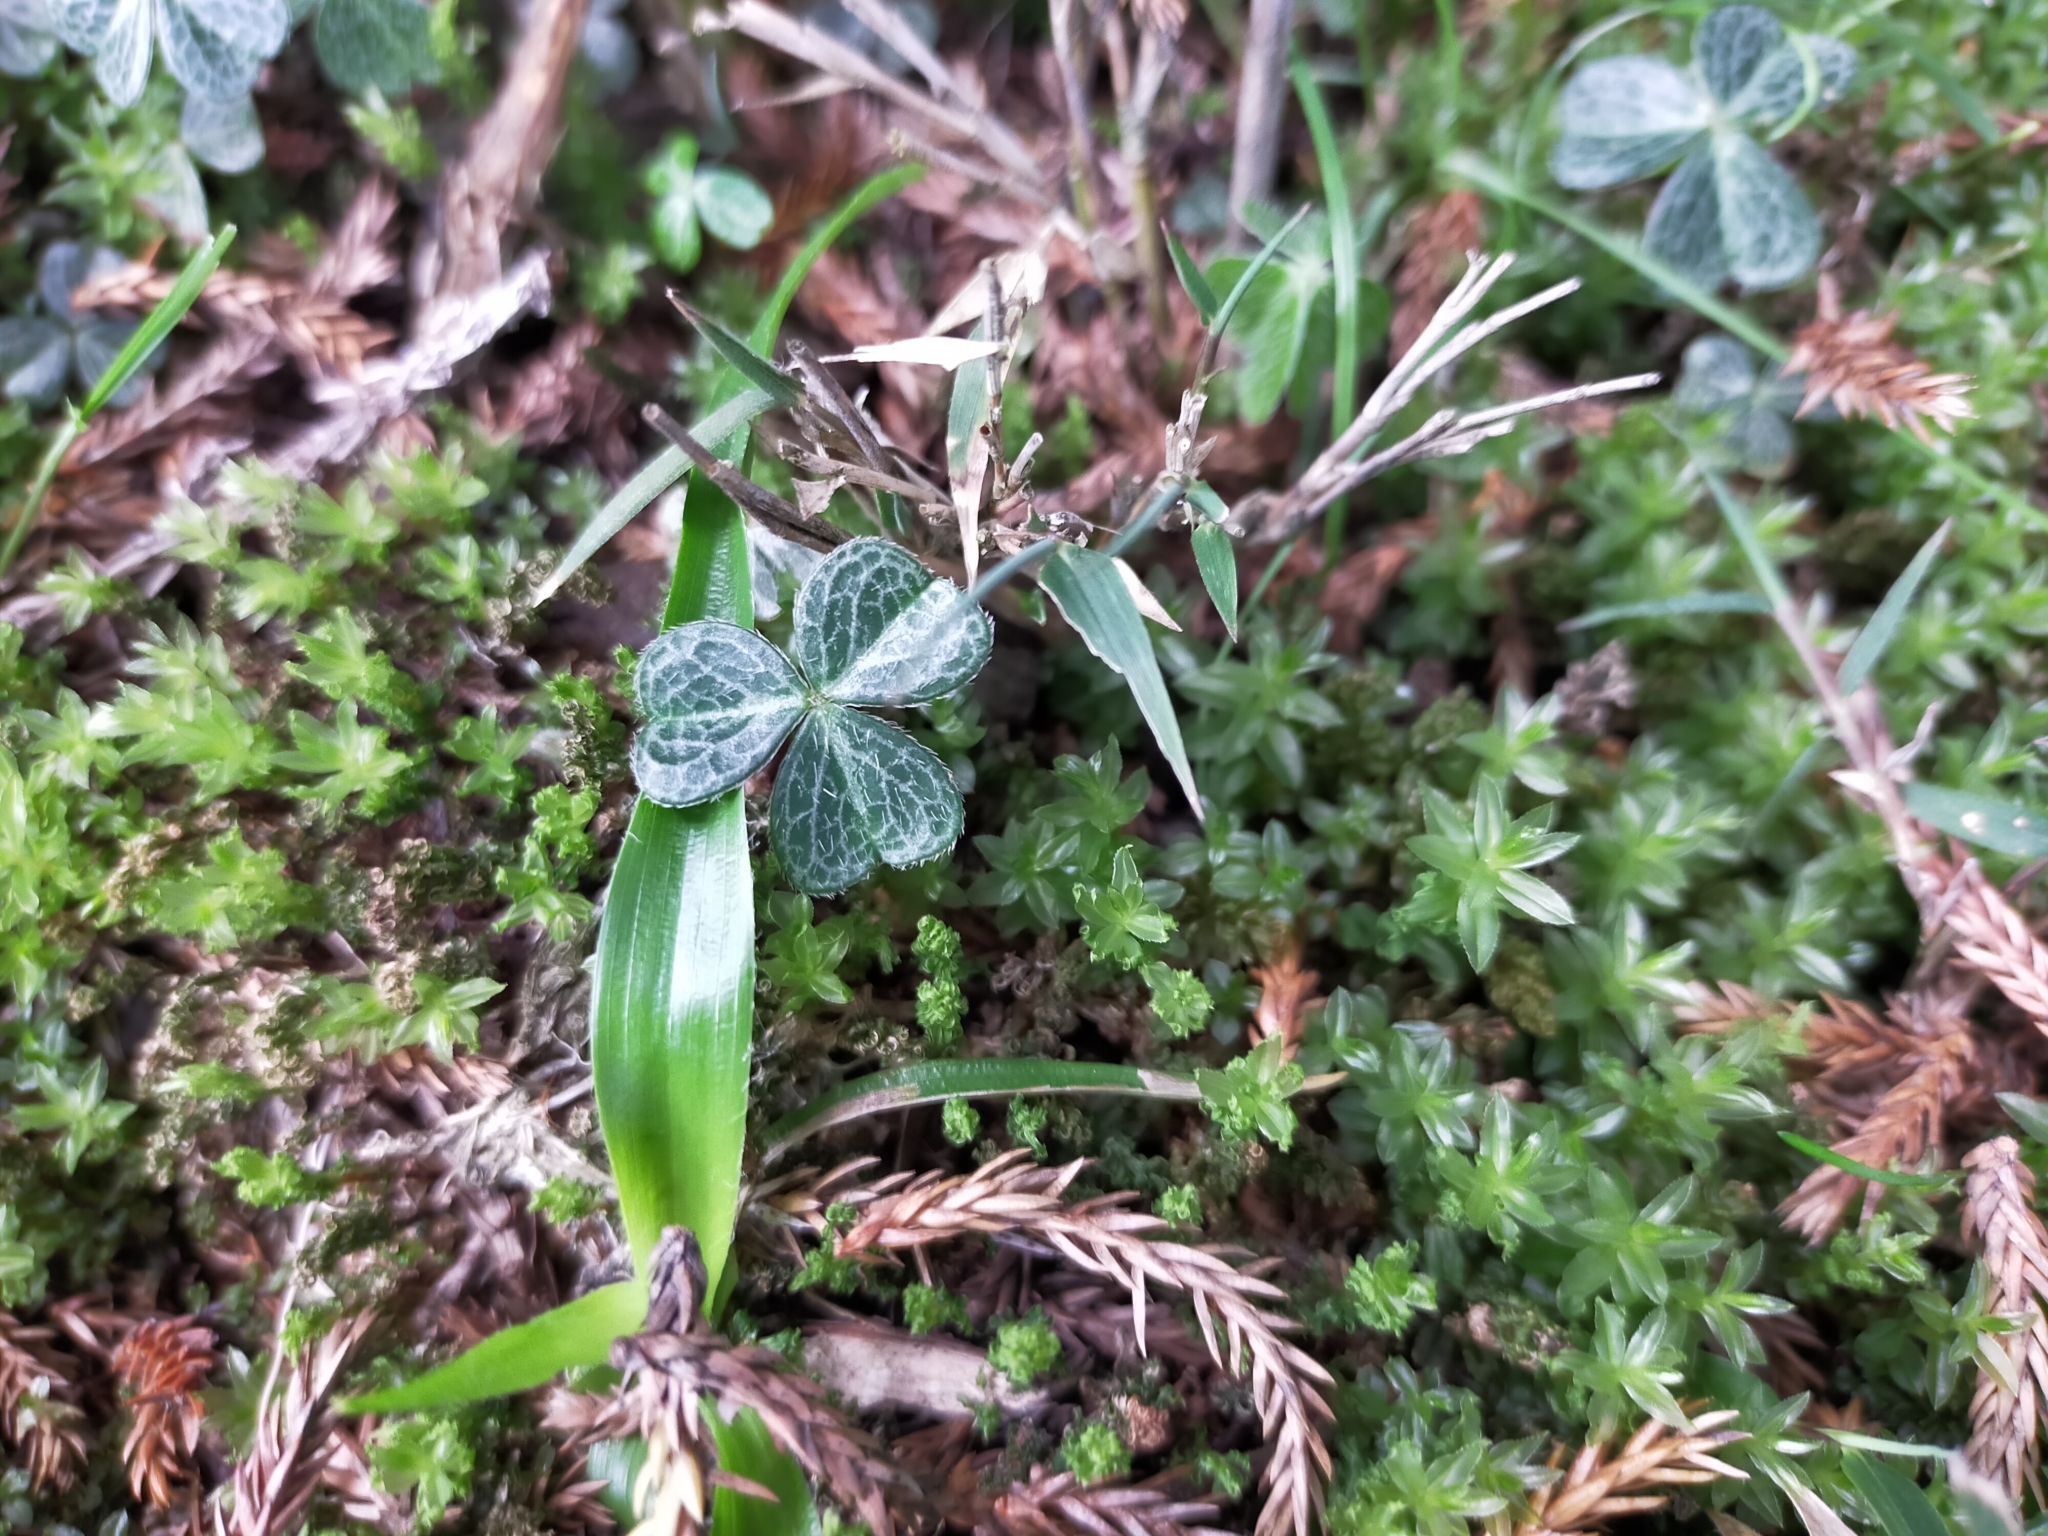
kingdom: Plantae
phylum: Tracheophyta
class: Magnoliopsida
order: Oxalidales
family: Oxalidaceae
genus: Oxalis
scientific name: Oxalis griffithii
